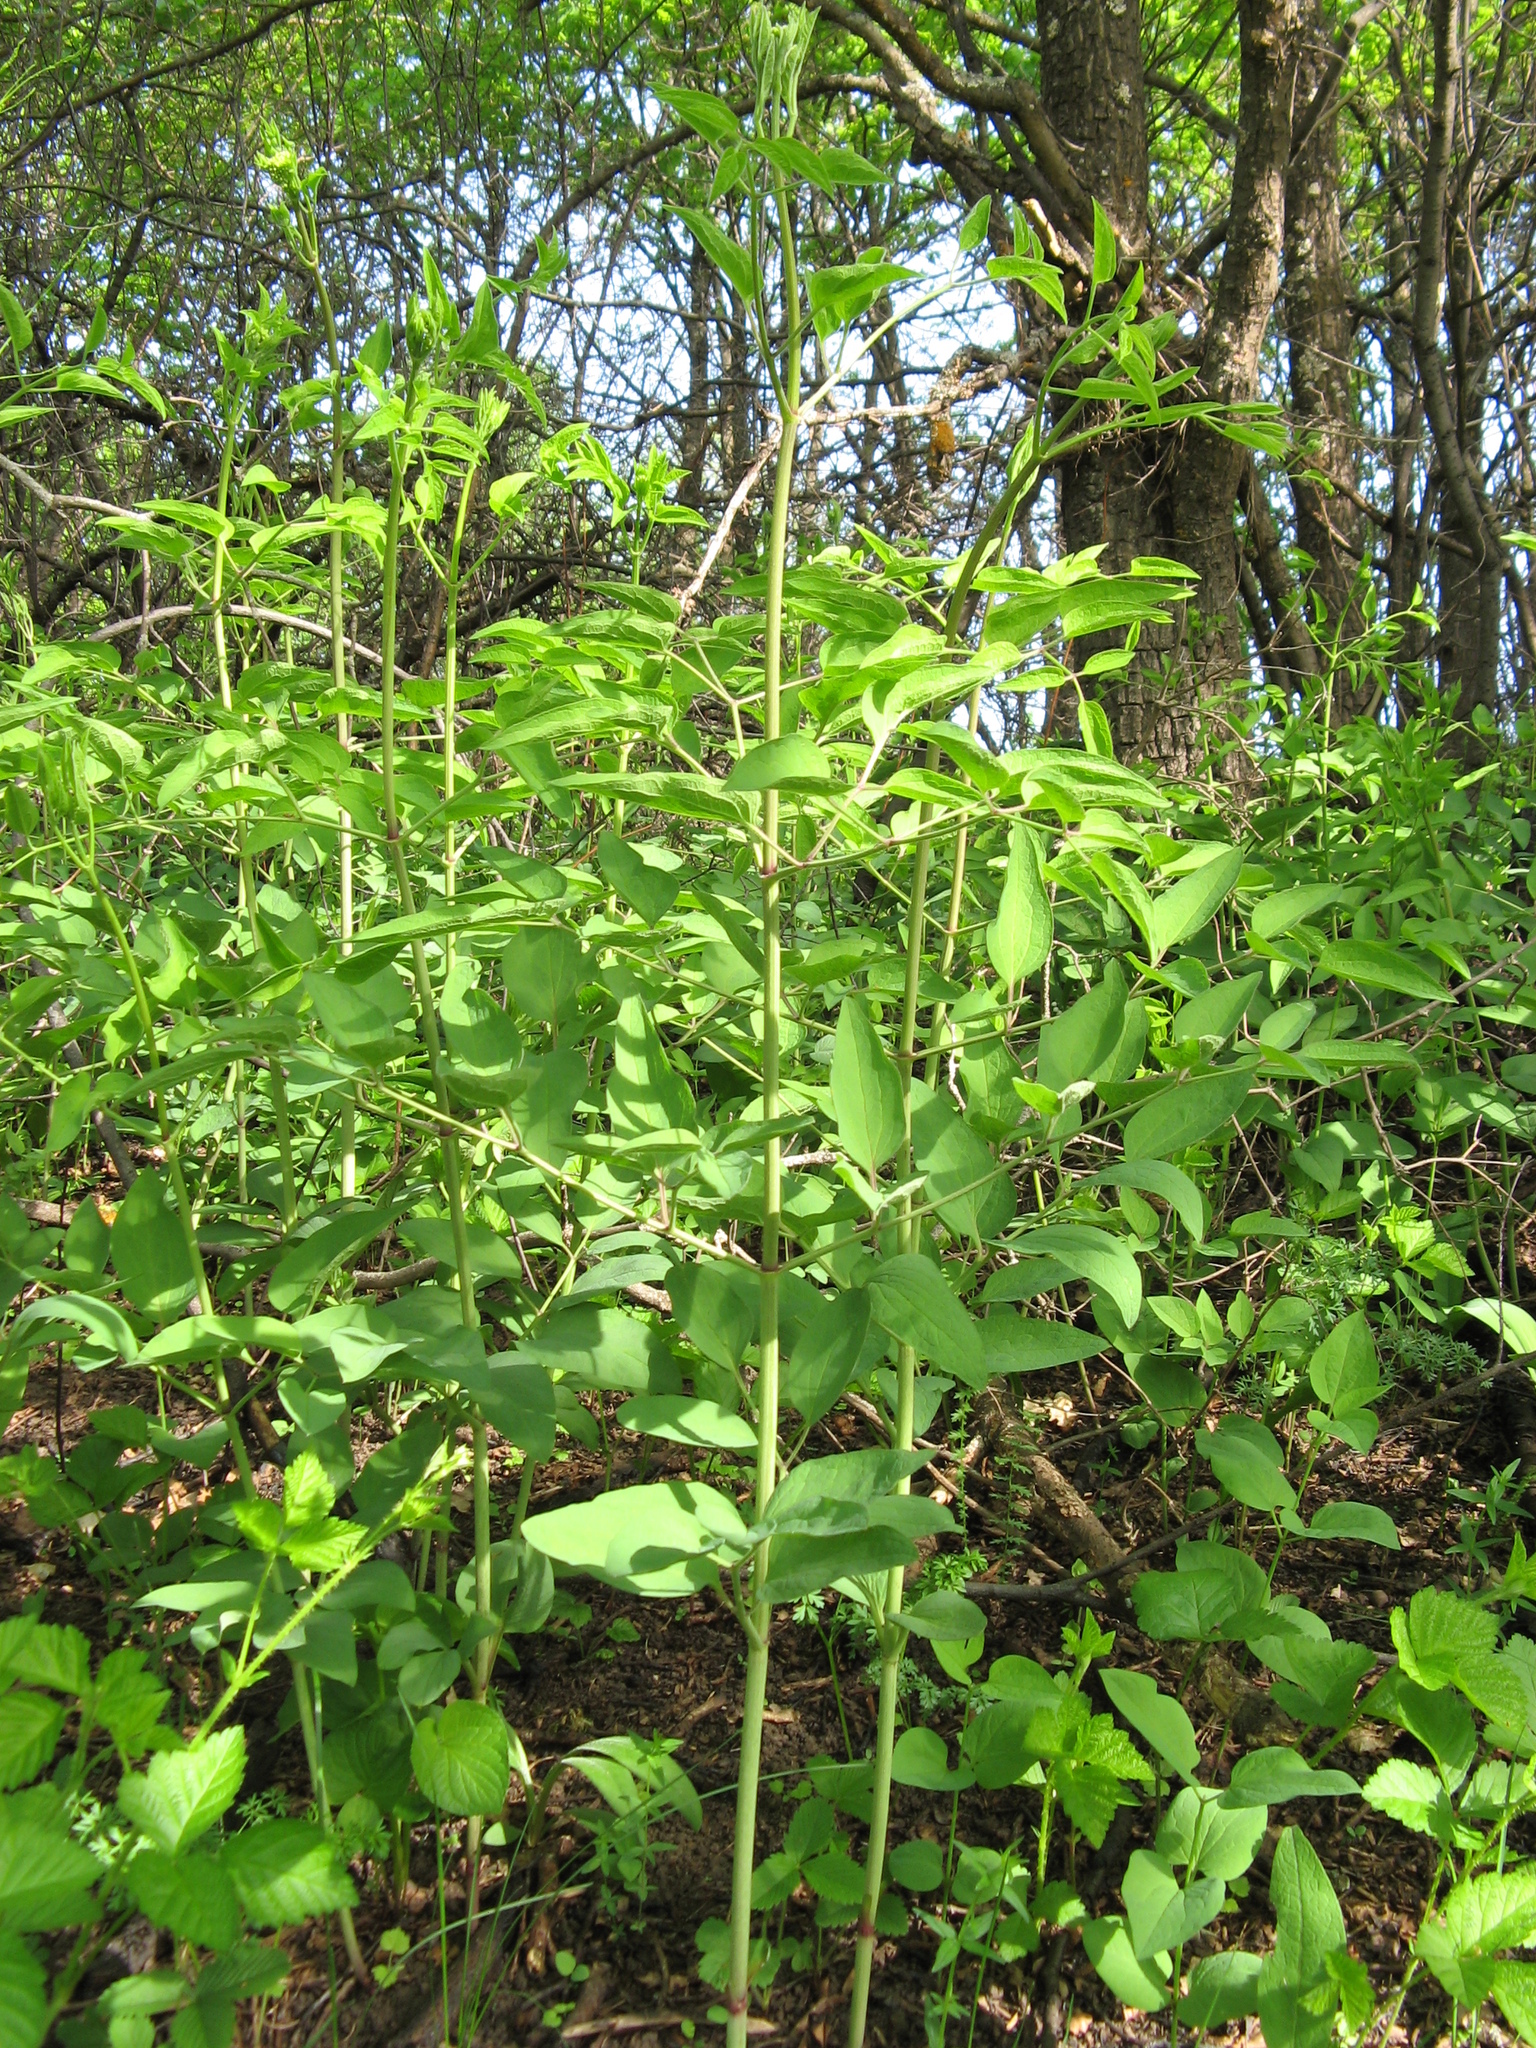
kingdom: Plantae
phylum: Tracheophyta
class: Magnoliopsida
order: Ranunculales
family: Ranunculaceae
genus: Clematis
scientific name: Clematis recta
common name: Ground clematis
